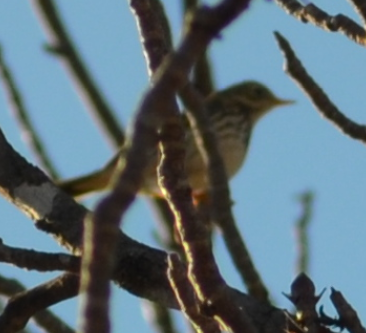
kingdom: Animalia
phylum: Chordata
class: Aves
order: Passeriformes
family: Motacillidae
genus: Anthus
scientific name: Anthus pratensis
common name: Meadow pipit
